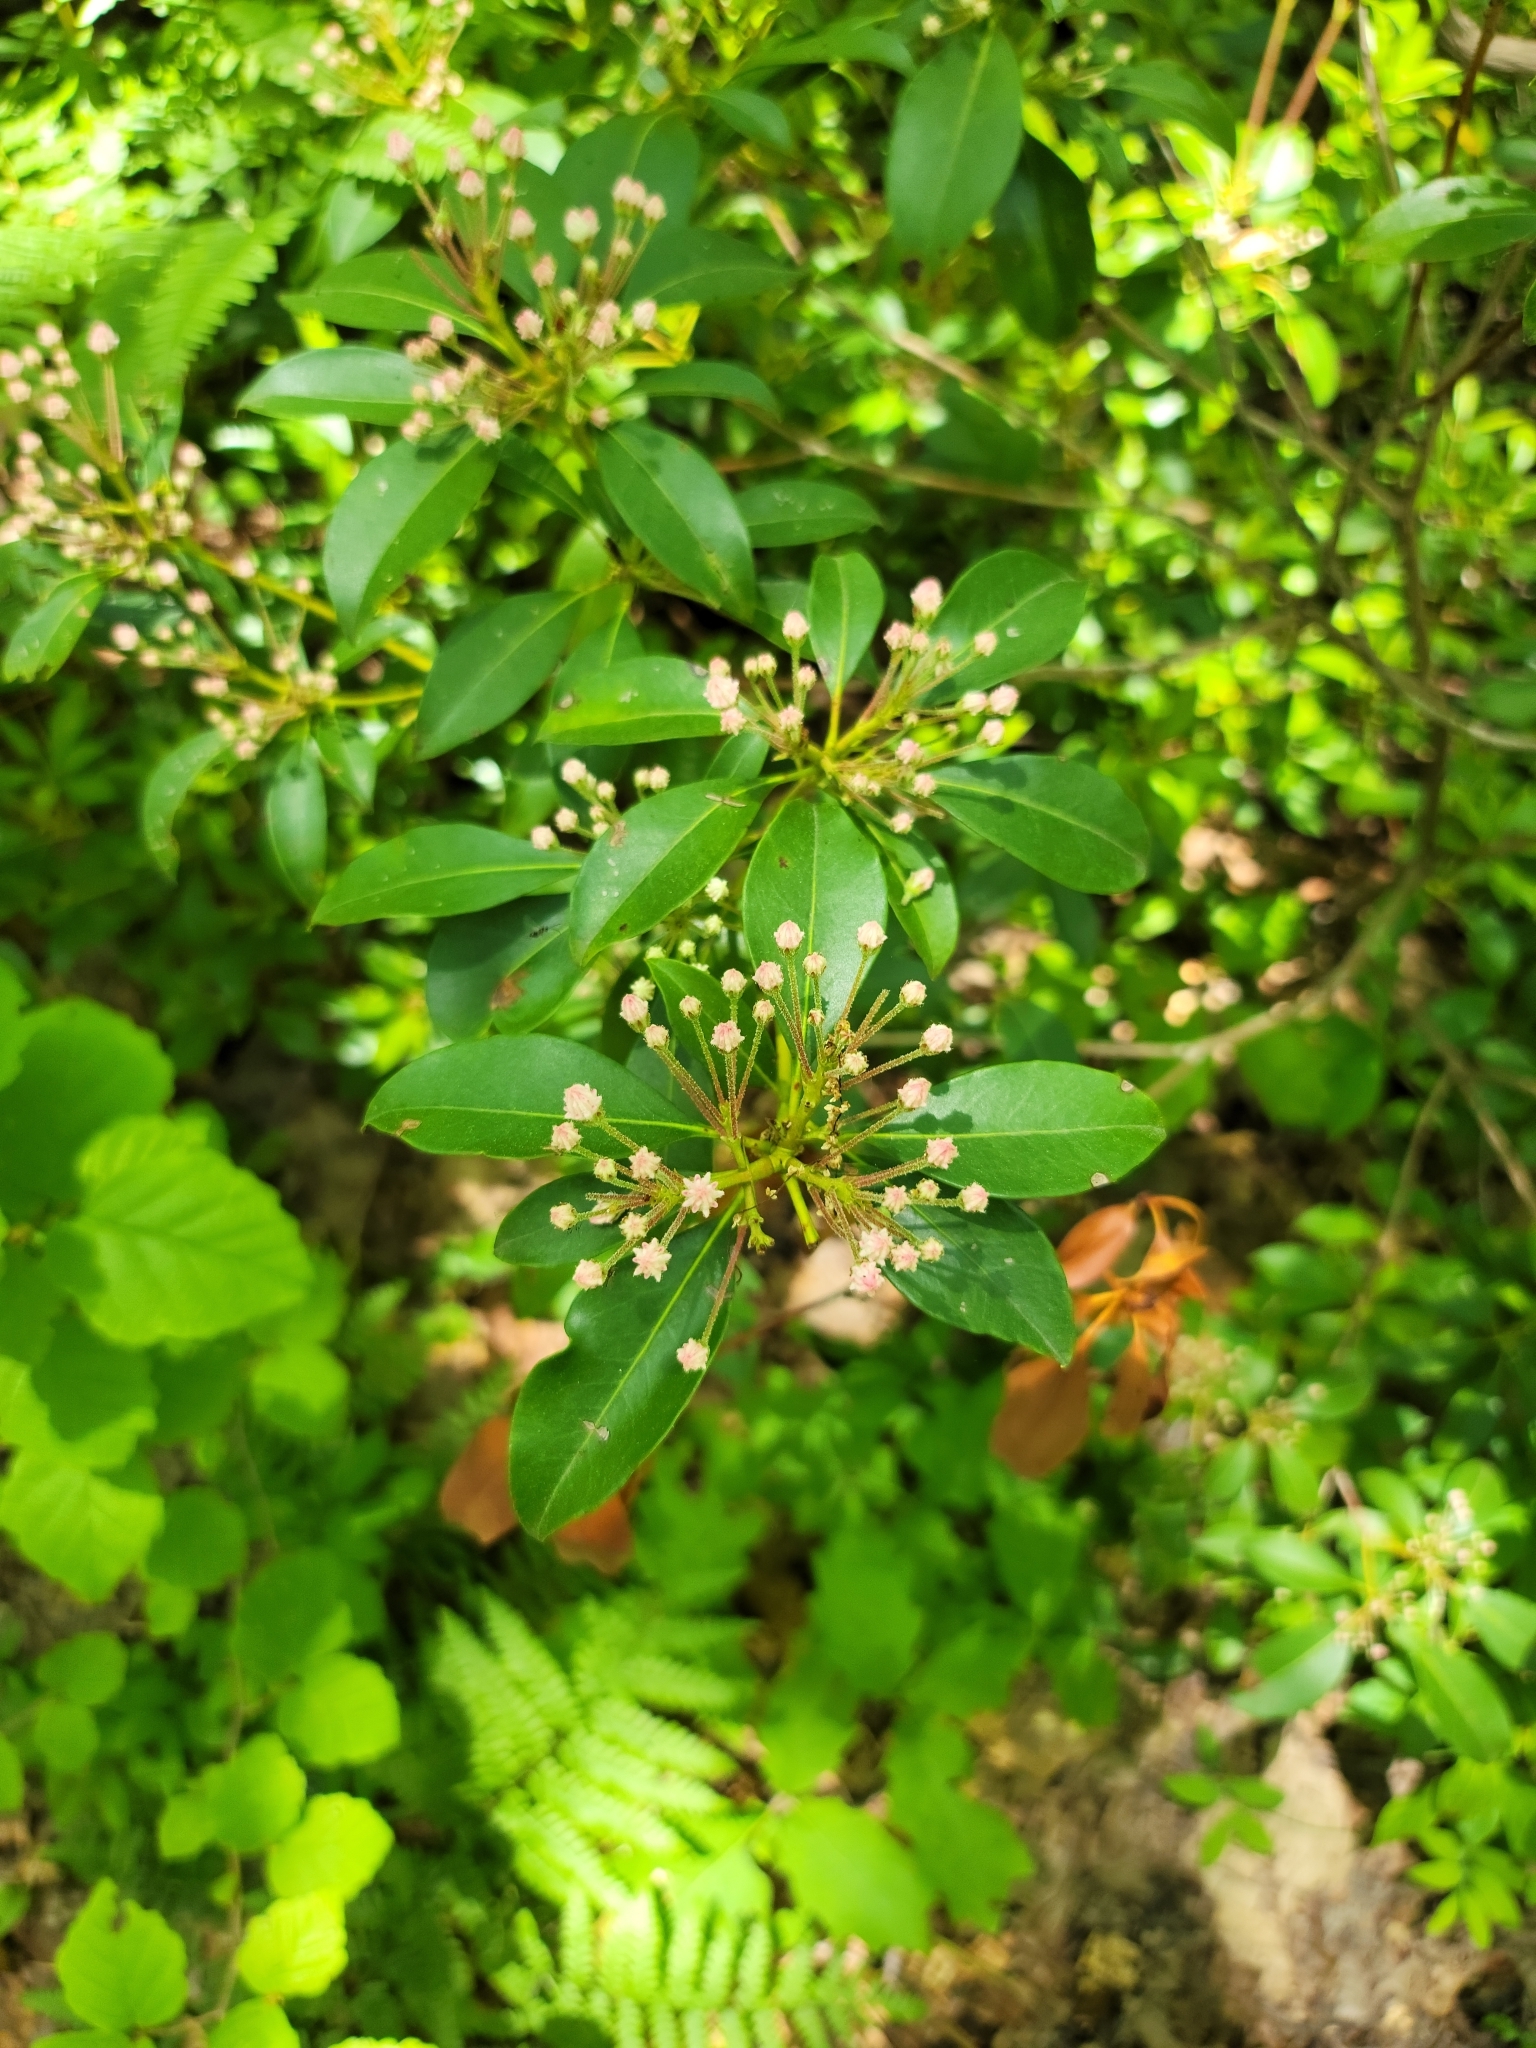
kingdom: Plantae
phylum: Tracheophyta
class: Magnoliopsida
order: Ericales
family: Ericaceae
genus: Kalmia
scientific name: Kalmia latifolia
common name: Mountain-laurel
